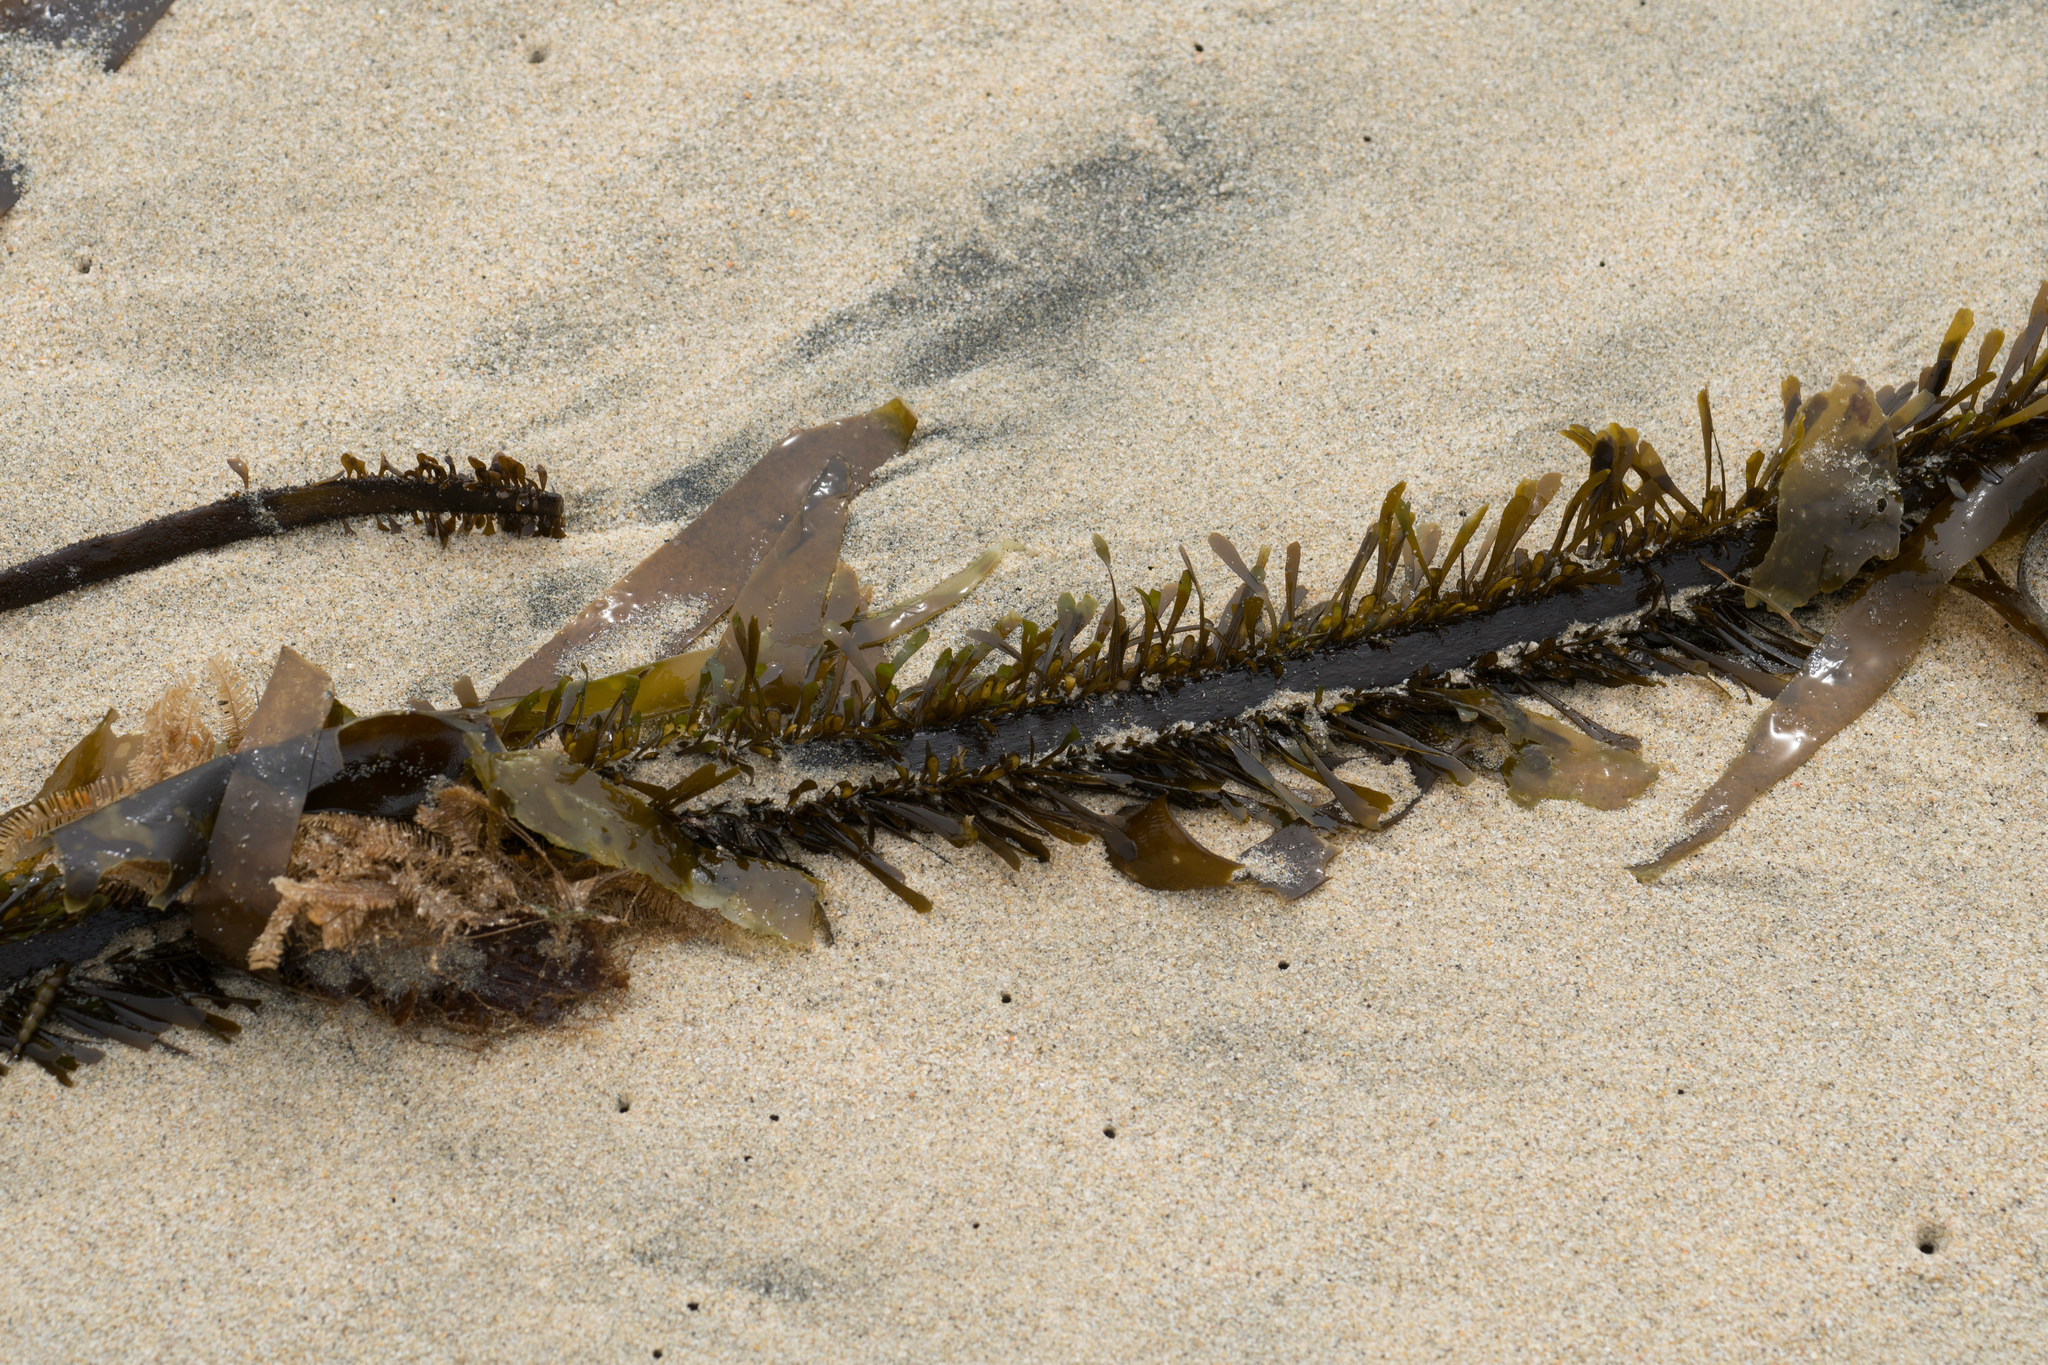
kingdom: Chromista
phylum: Ochrophyta
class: Phaeophyceae
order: Laminariales
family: Lessoniaceae
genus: Egregia
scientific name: Egregia menziesii
